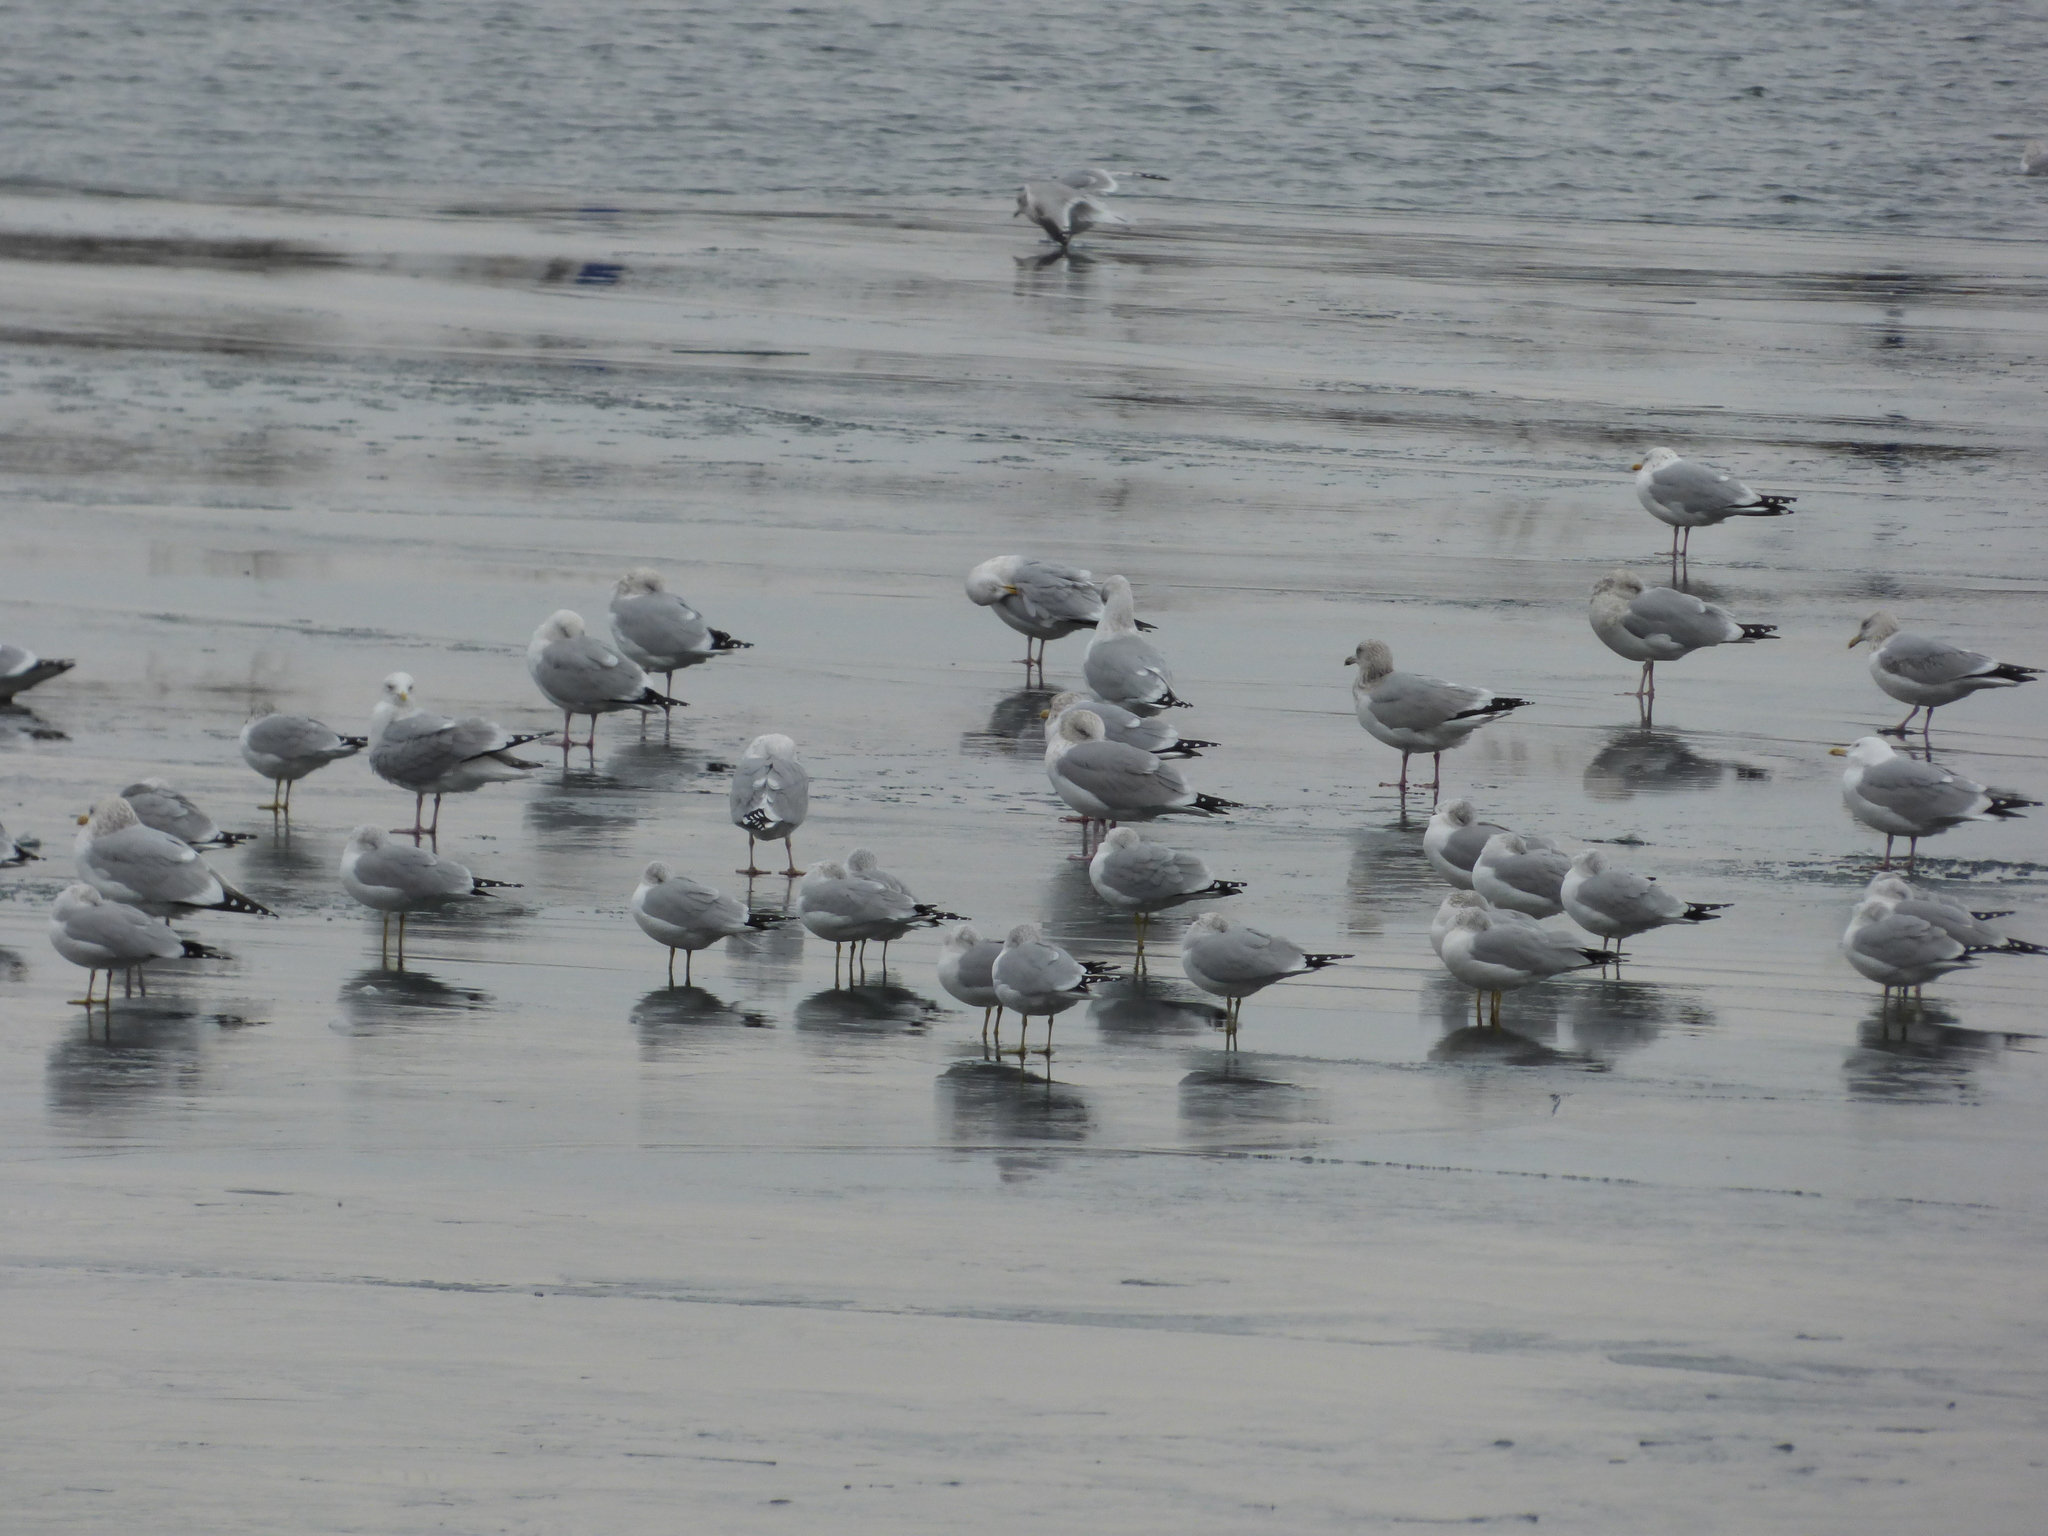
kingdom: Animalia
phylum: Chordata
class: Aves
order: Charadriiformes
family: Laridae
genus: Larus
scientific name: Larus argentatus
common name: Herring gull
